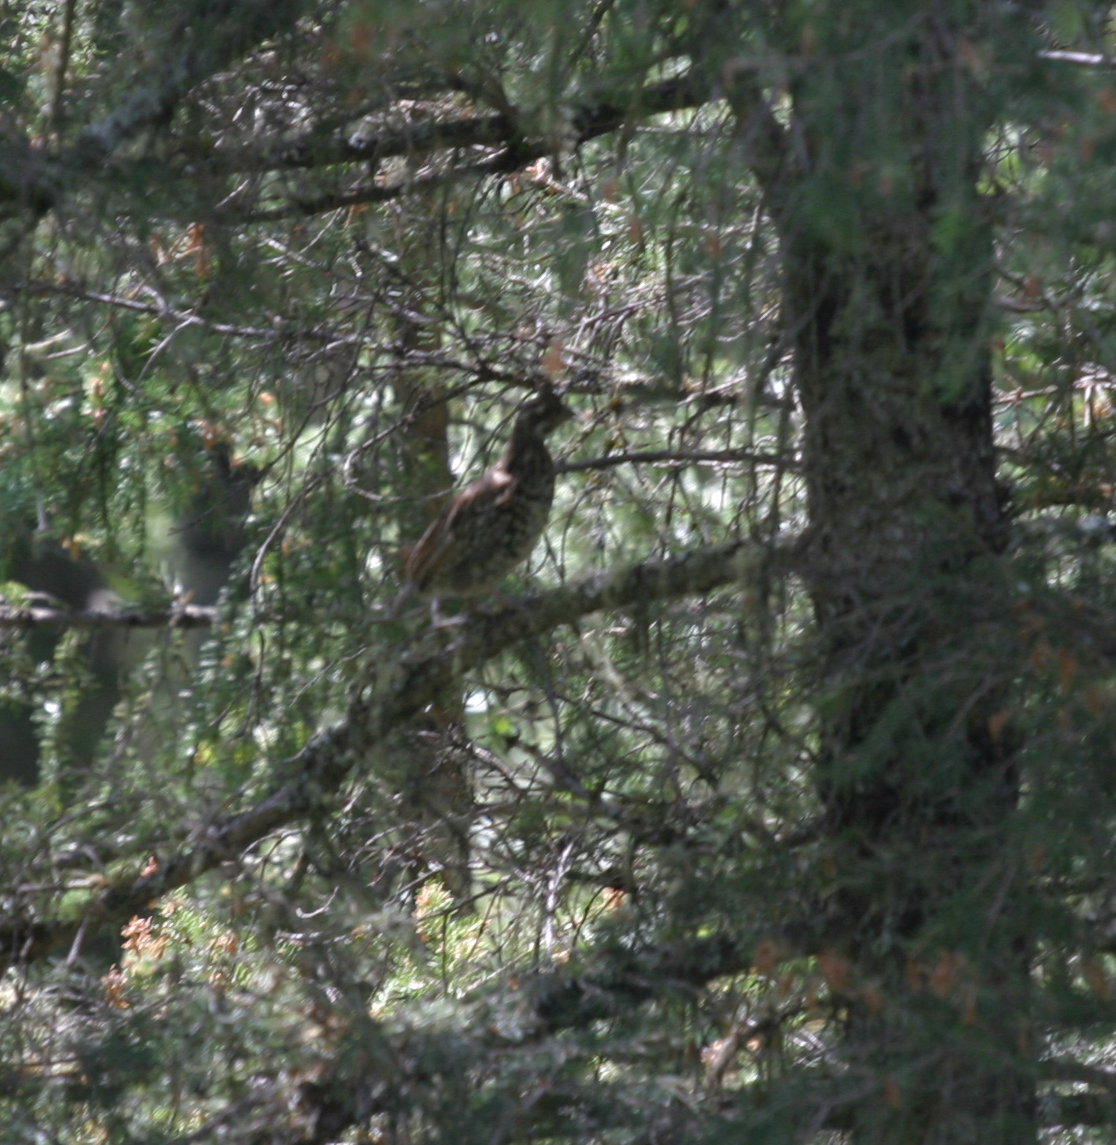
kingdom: Animalia
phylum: Chordata
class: Aves
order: Galliformes
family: Phasianidae
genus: Tetrastes
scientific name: Tetrastes bonasia
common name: Hazel grouse
